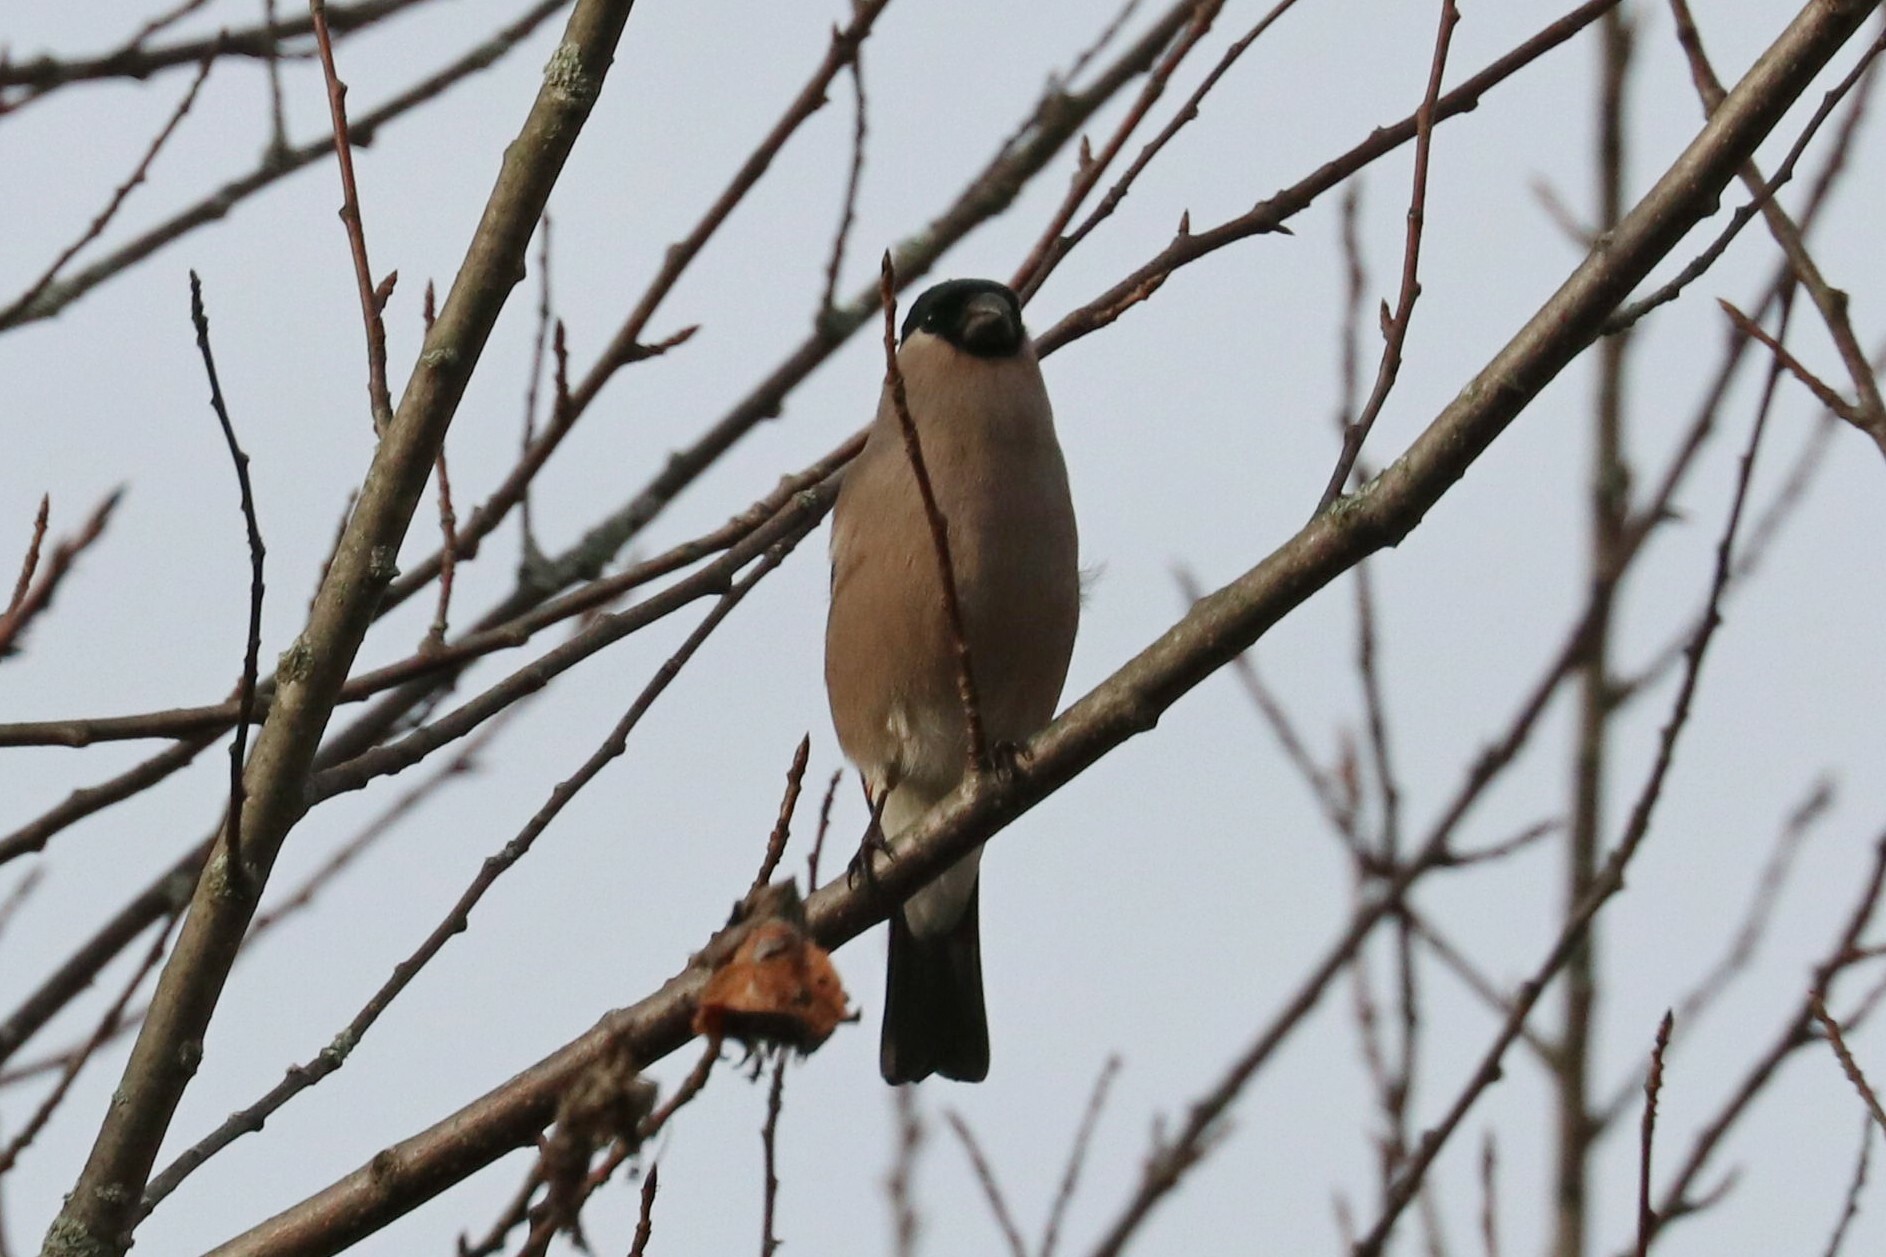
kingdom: Animalia
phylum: Chordata
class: Aves
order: Passeriformes
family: Fringillidae
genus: Pyrrhula
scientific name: Pyrrhula pyrrhula
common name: Eurasian bullfinch
